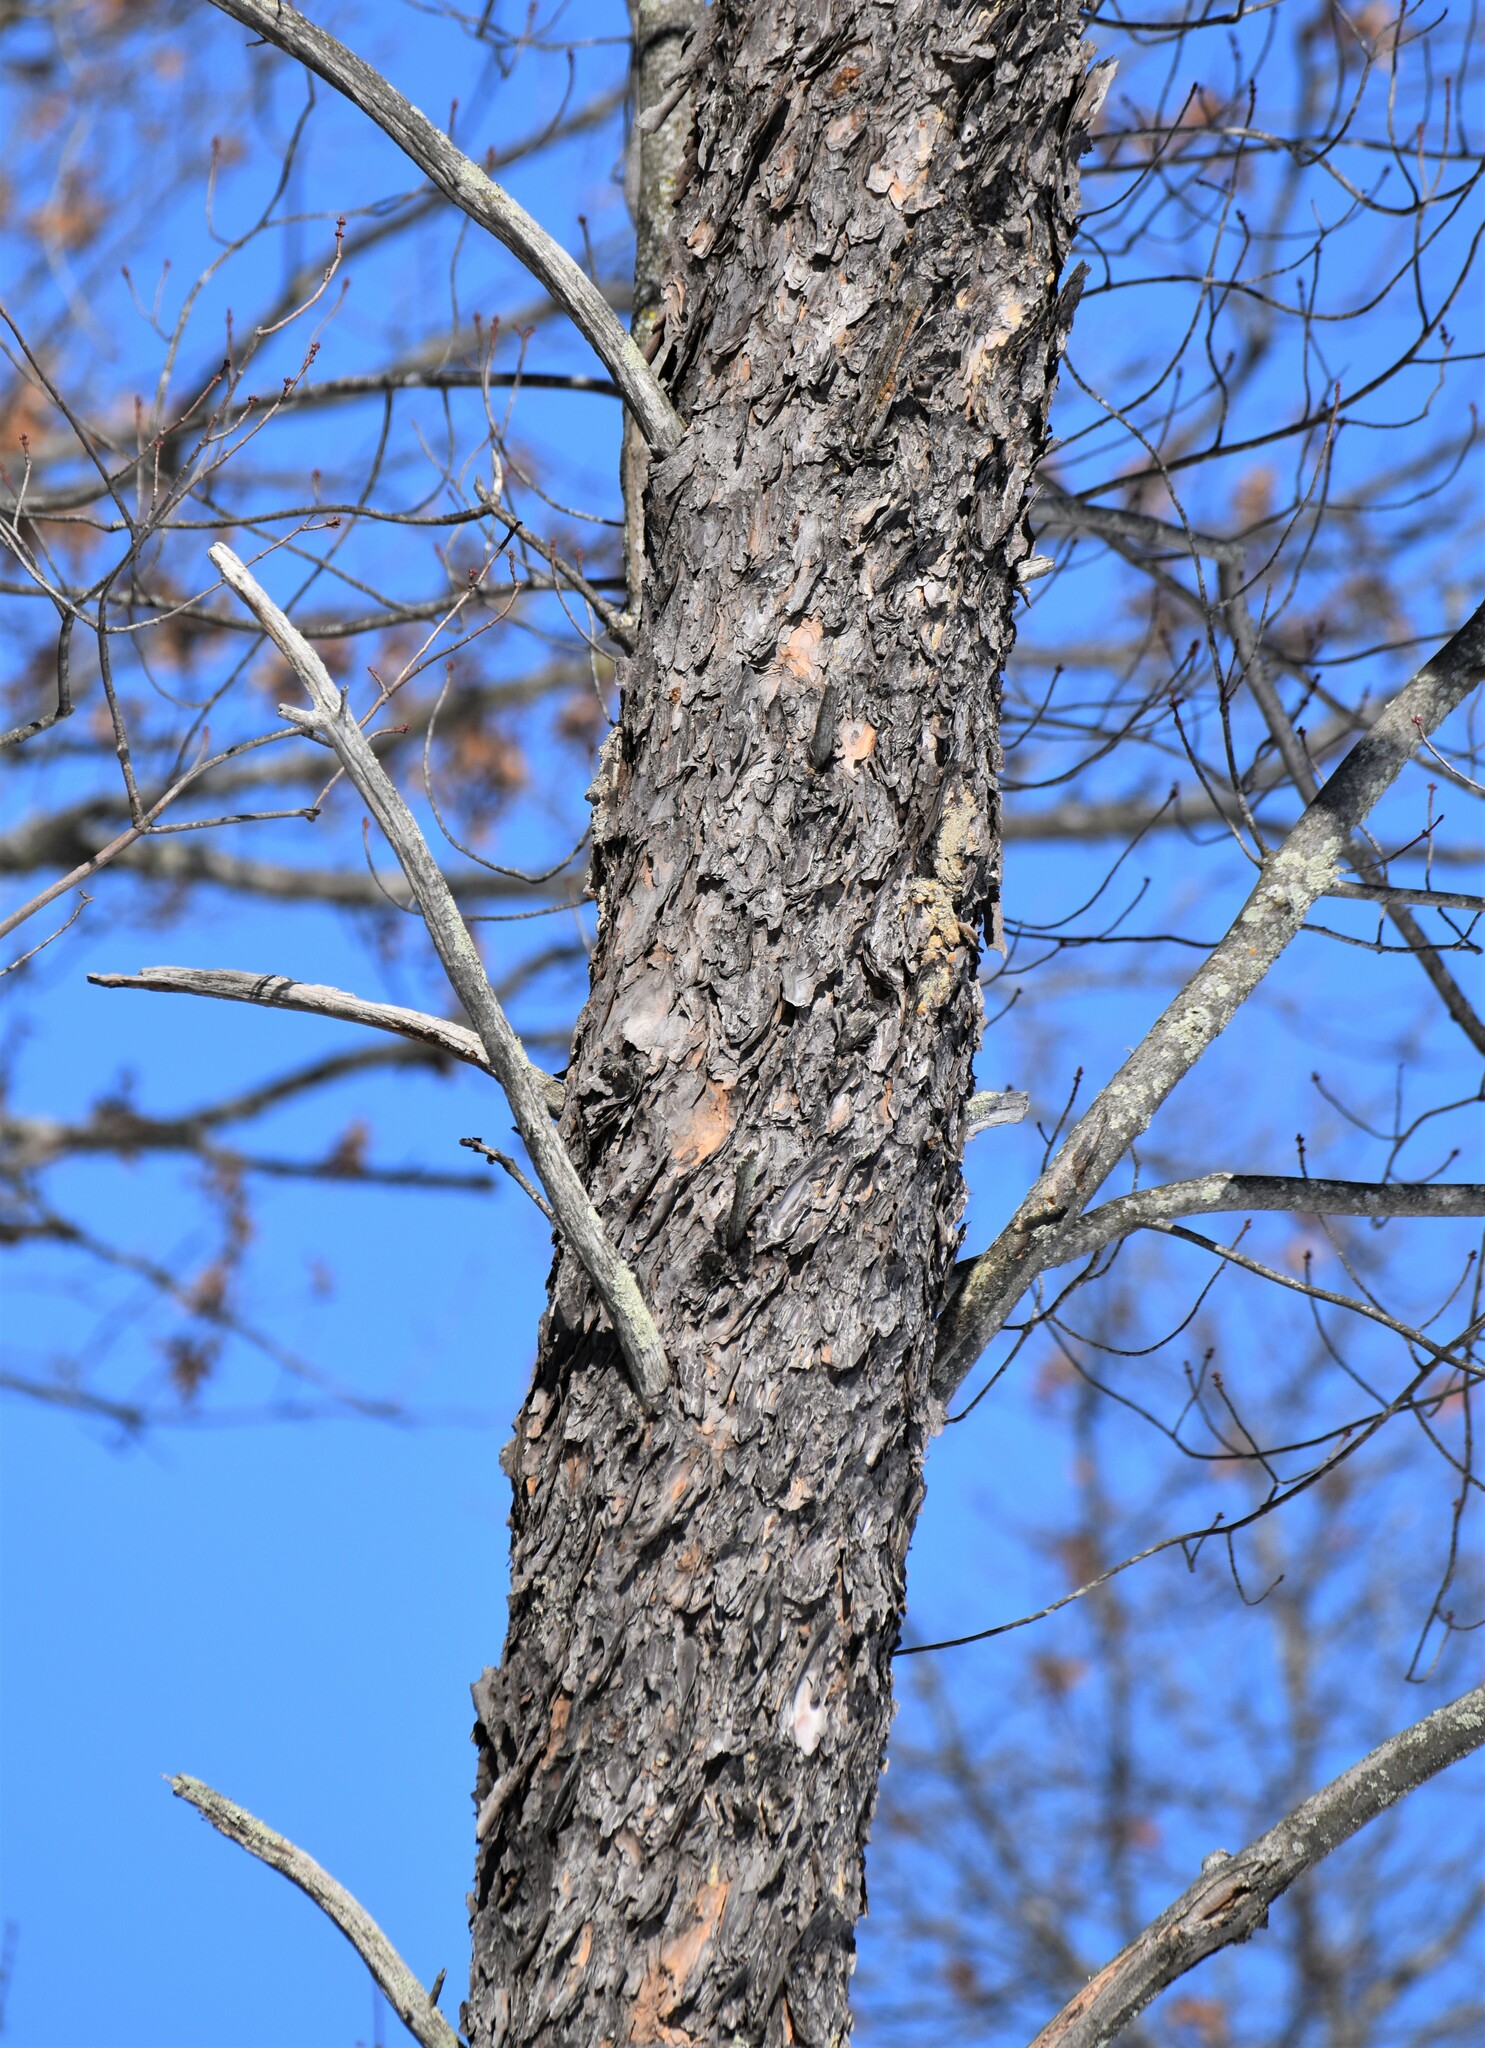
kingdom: Plantae
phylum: Tracheophyta
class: Pinopsida
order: Pinales
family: Pinaceae
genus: Pinus
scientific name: Pinus banksiana
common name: Jack pine
